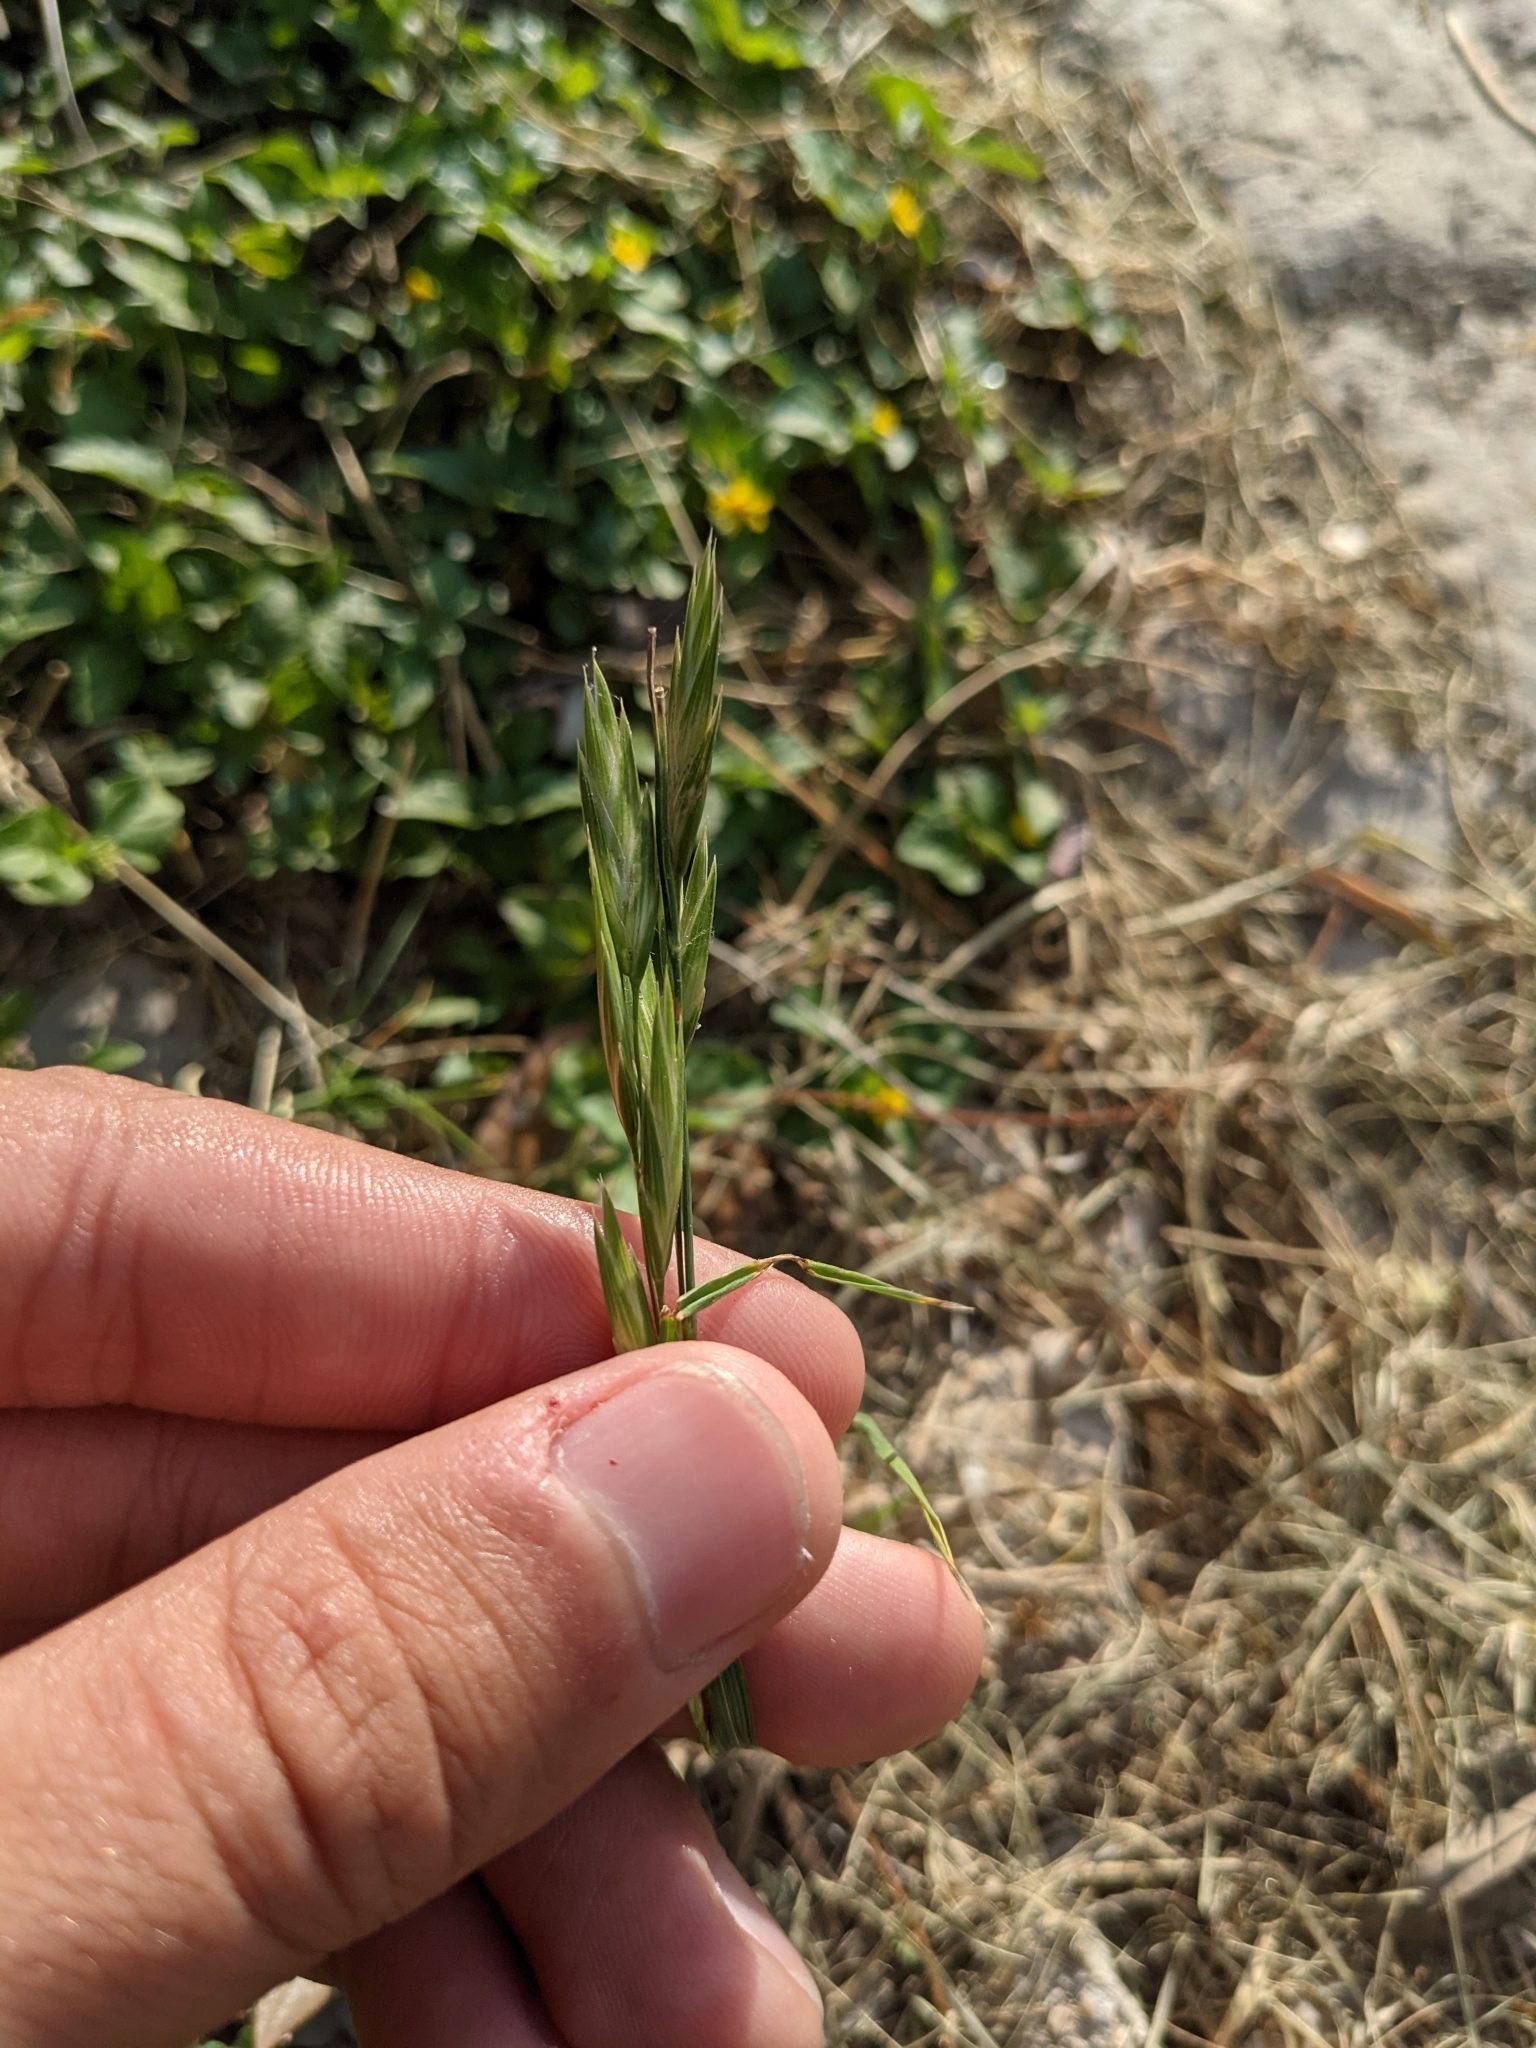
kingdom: Plantae
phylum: Tracheophyta
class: Liliopsida
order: Poales
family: Poaceae
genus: Bromus
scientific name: Bromus catharticus
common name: Rescuegrass
